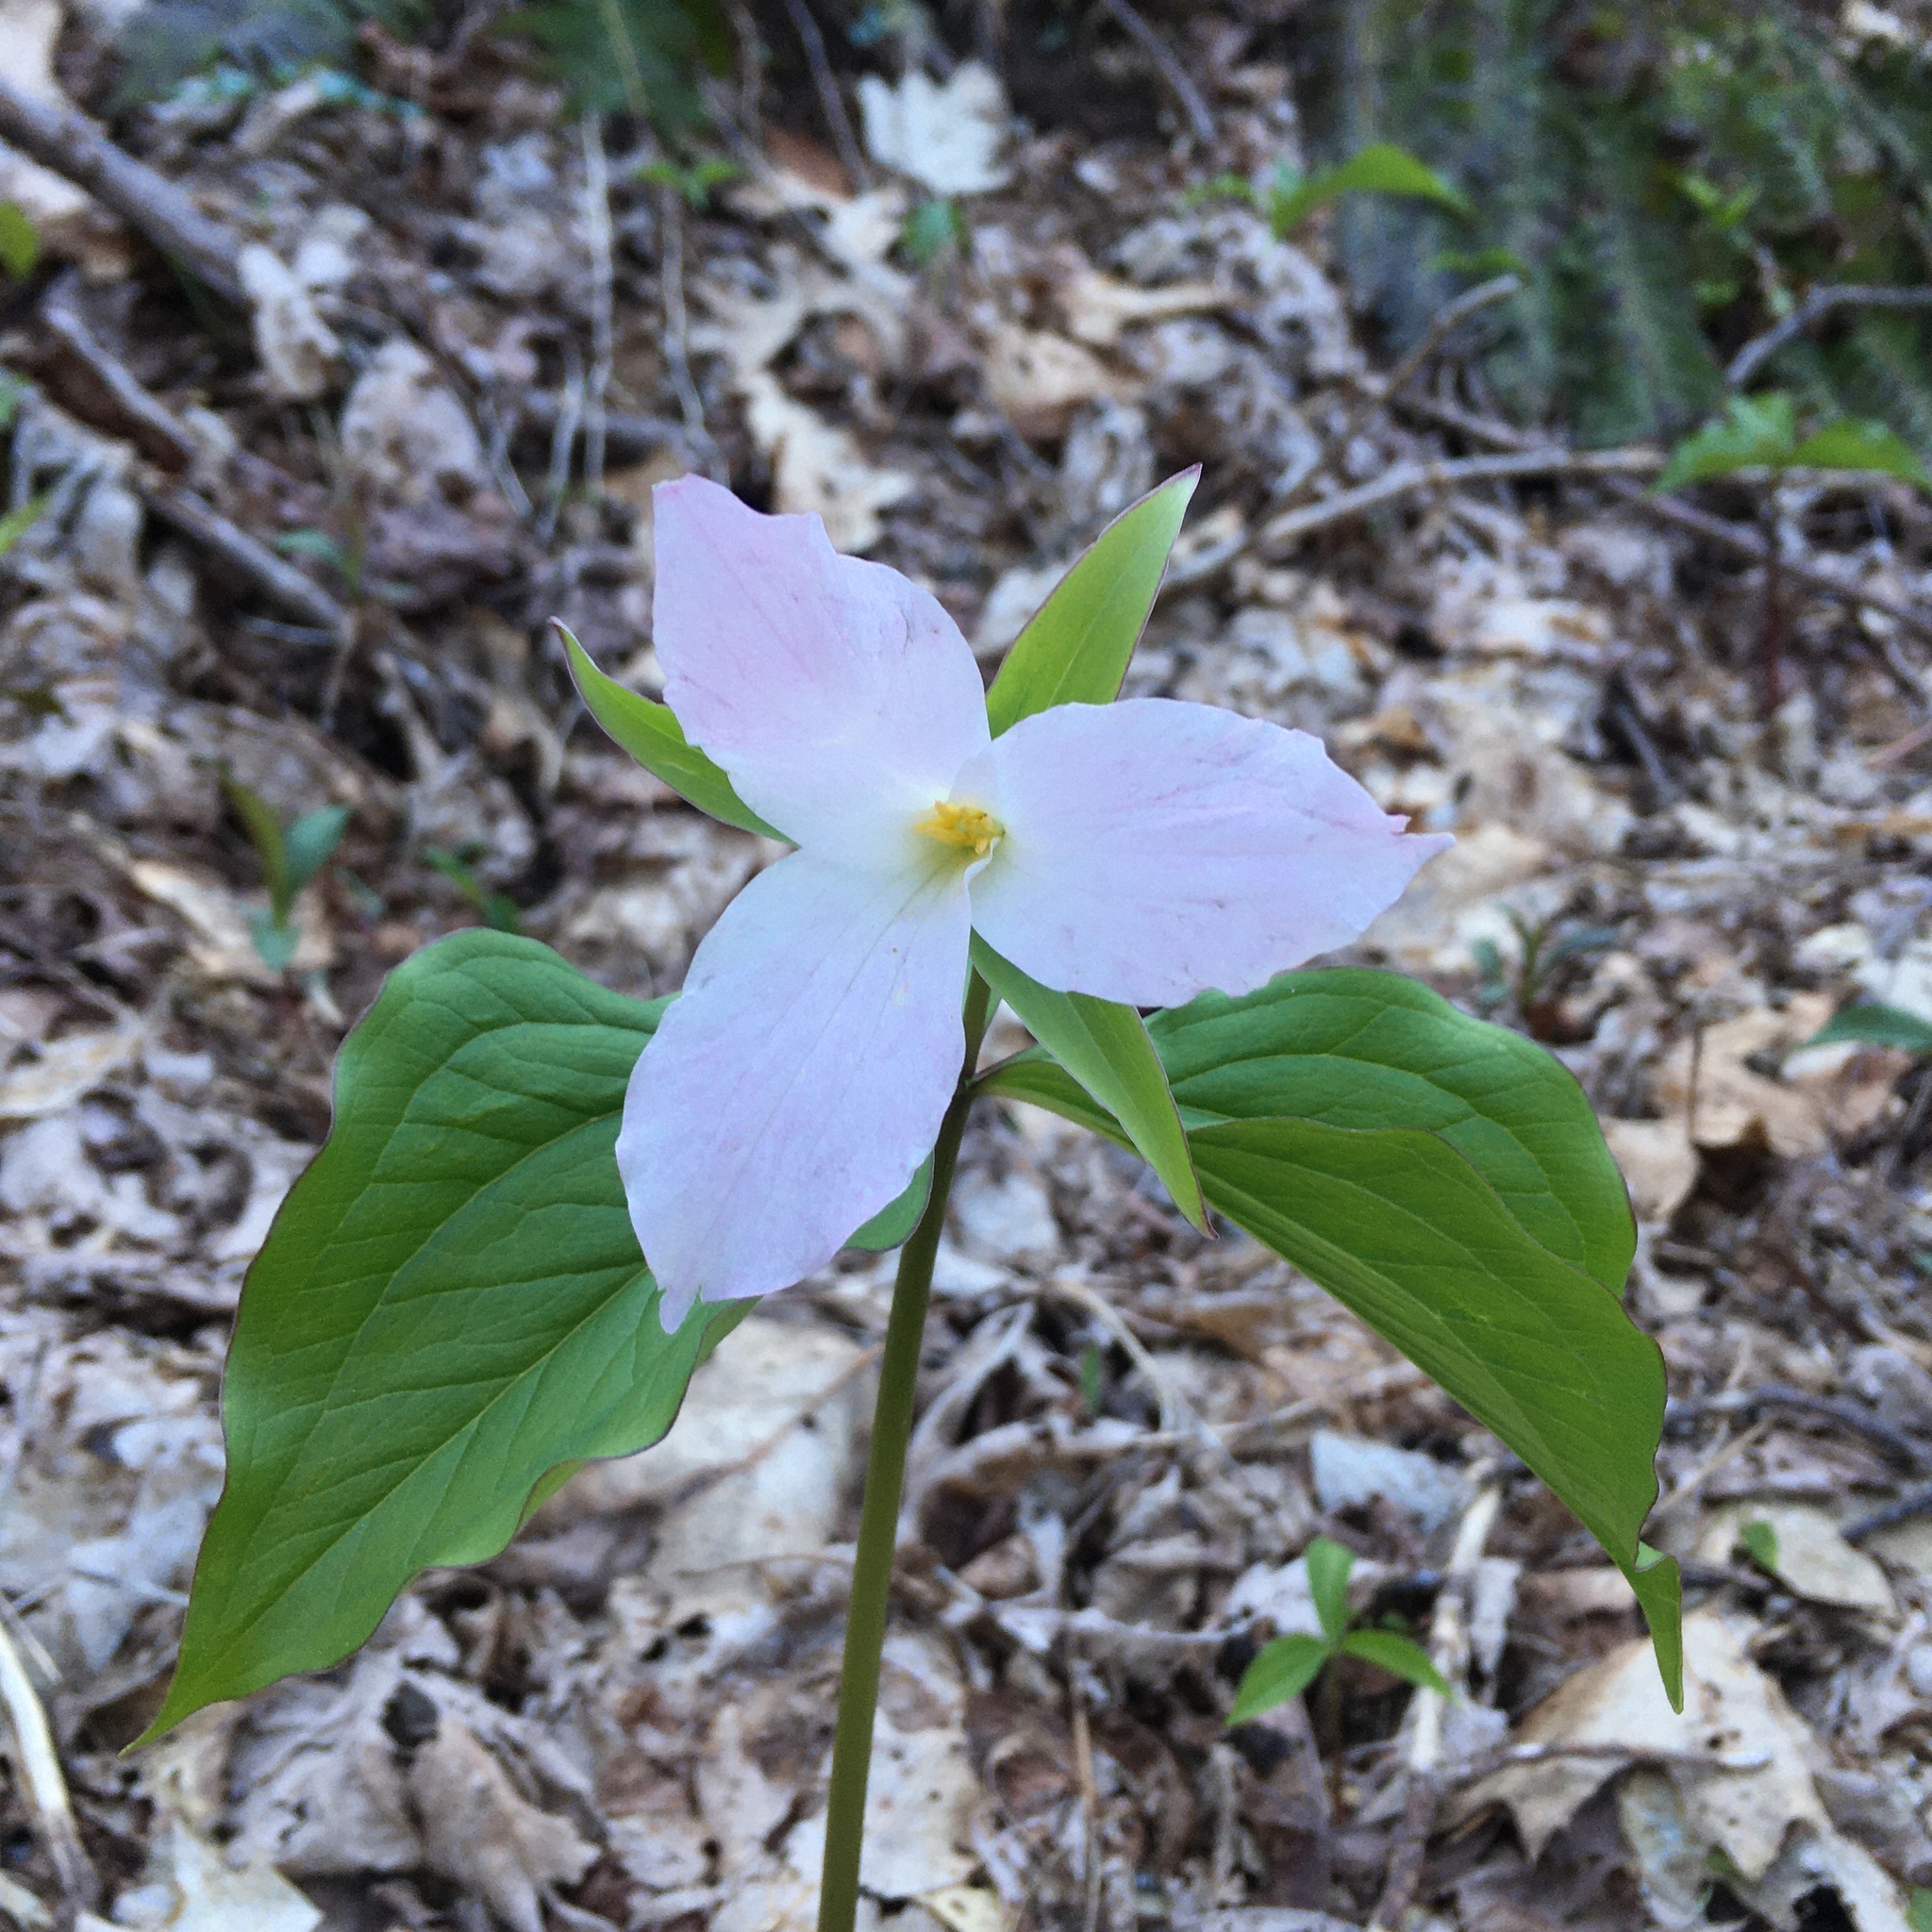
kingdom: Plantae
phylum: Tracheophyta
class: Liliopsida
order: Liliales
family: Melanthiaceae
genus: Trillium
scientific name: Trillium grandiflorum
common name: Great white trillium
